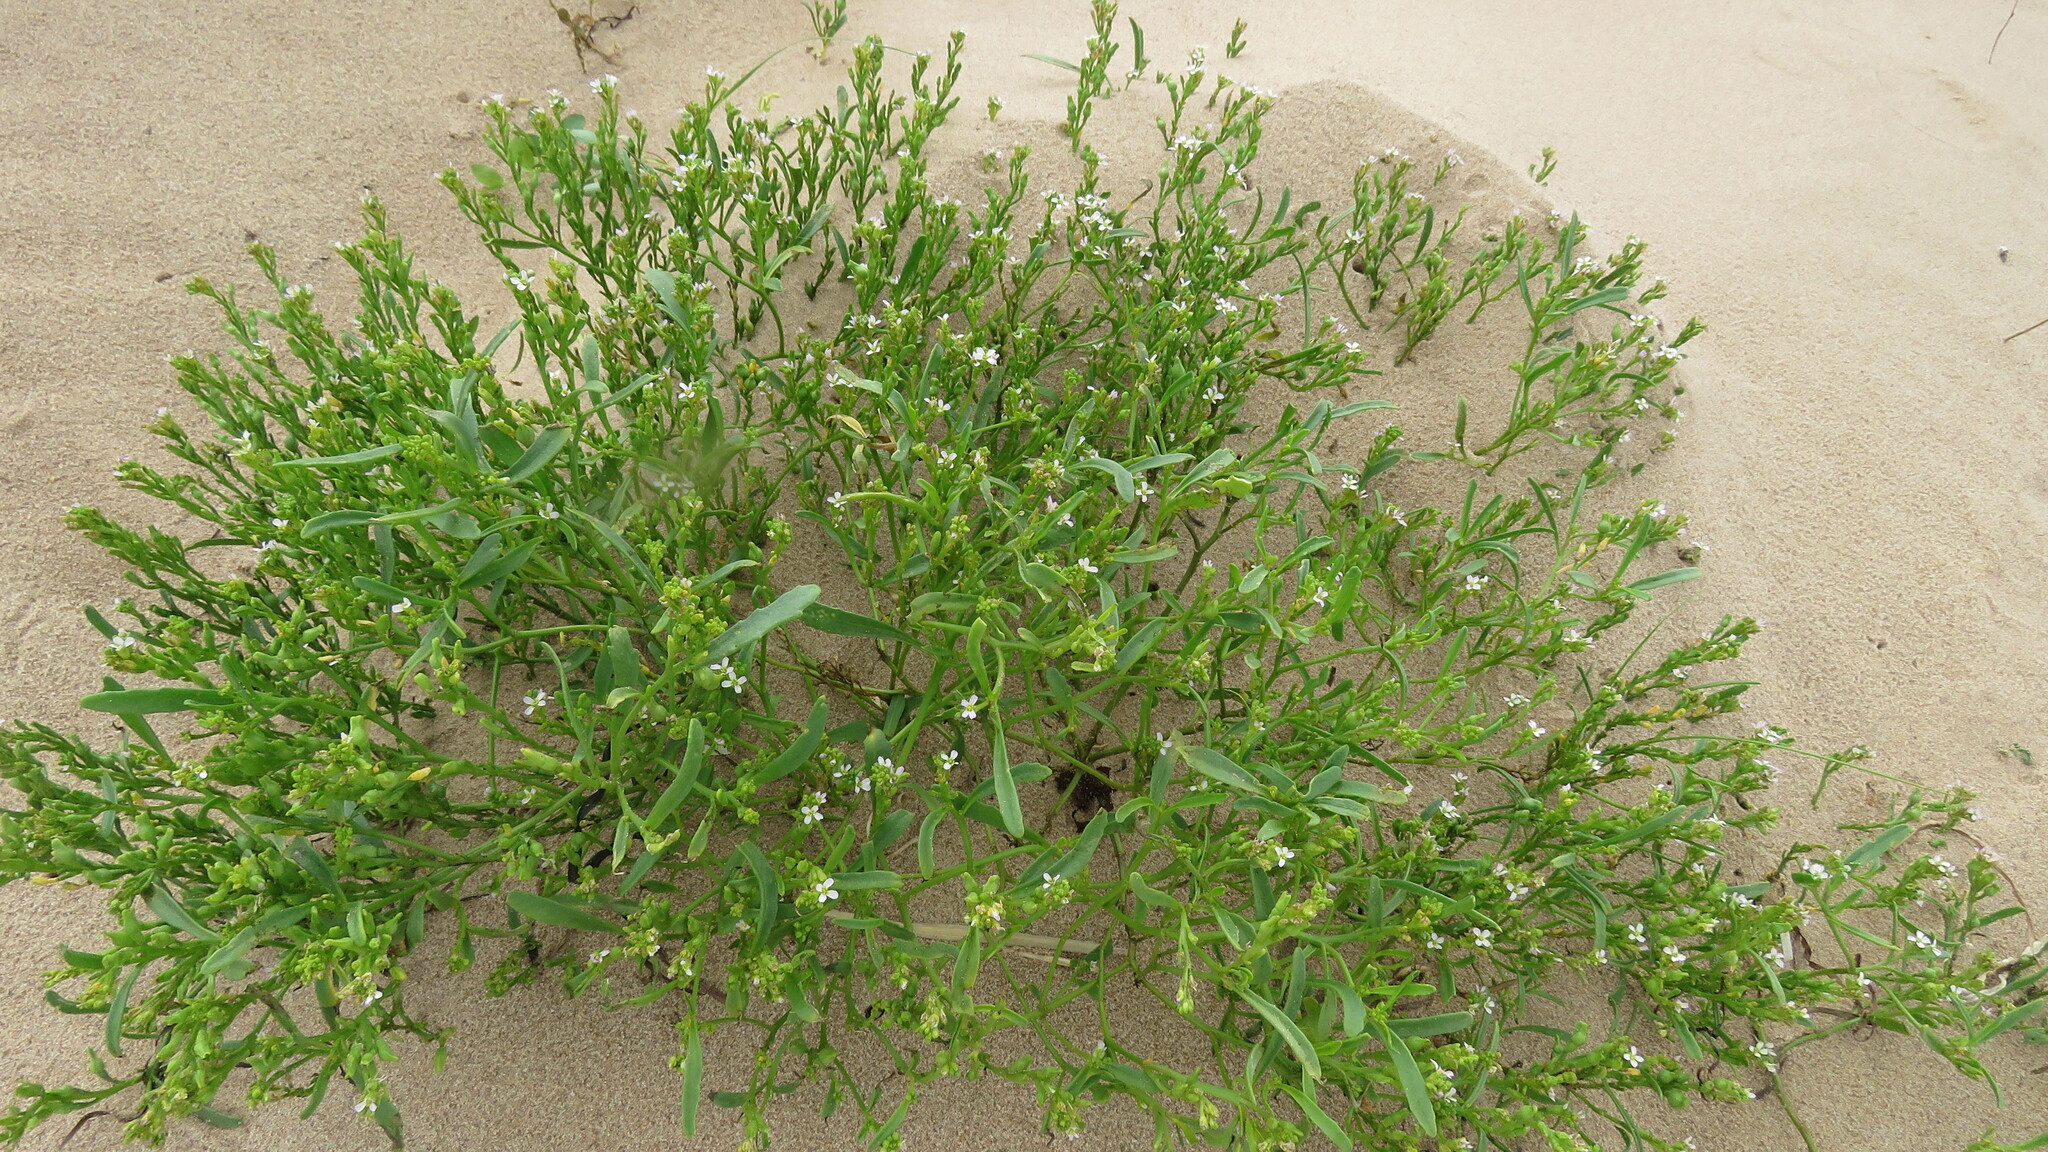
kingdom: Plantae
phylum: Tracheophyta
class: Magnoliopsida
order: Brassicales
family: Brassicaceae
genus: Cakile
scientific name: Cakile edentula
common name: American sea rocket
